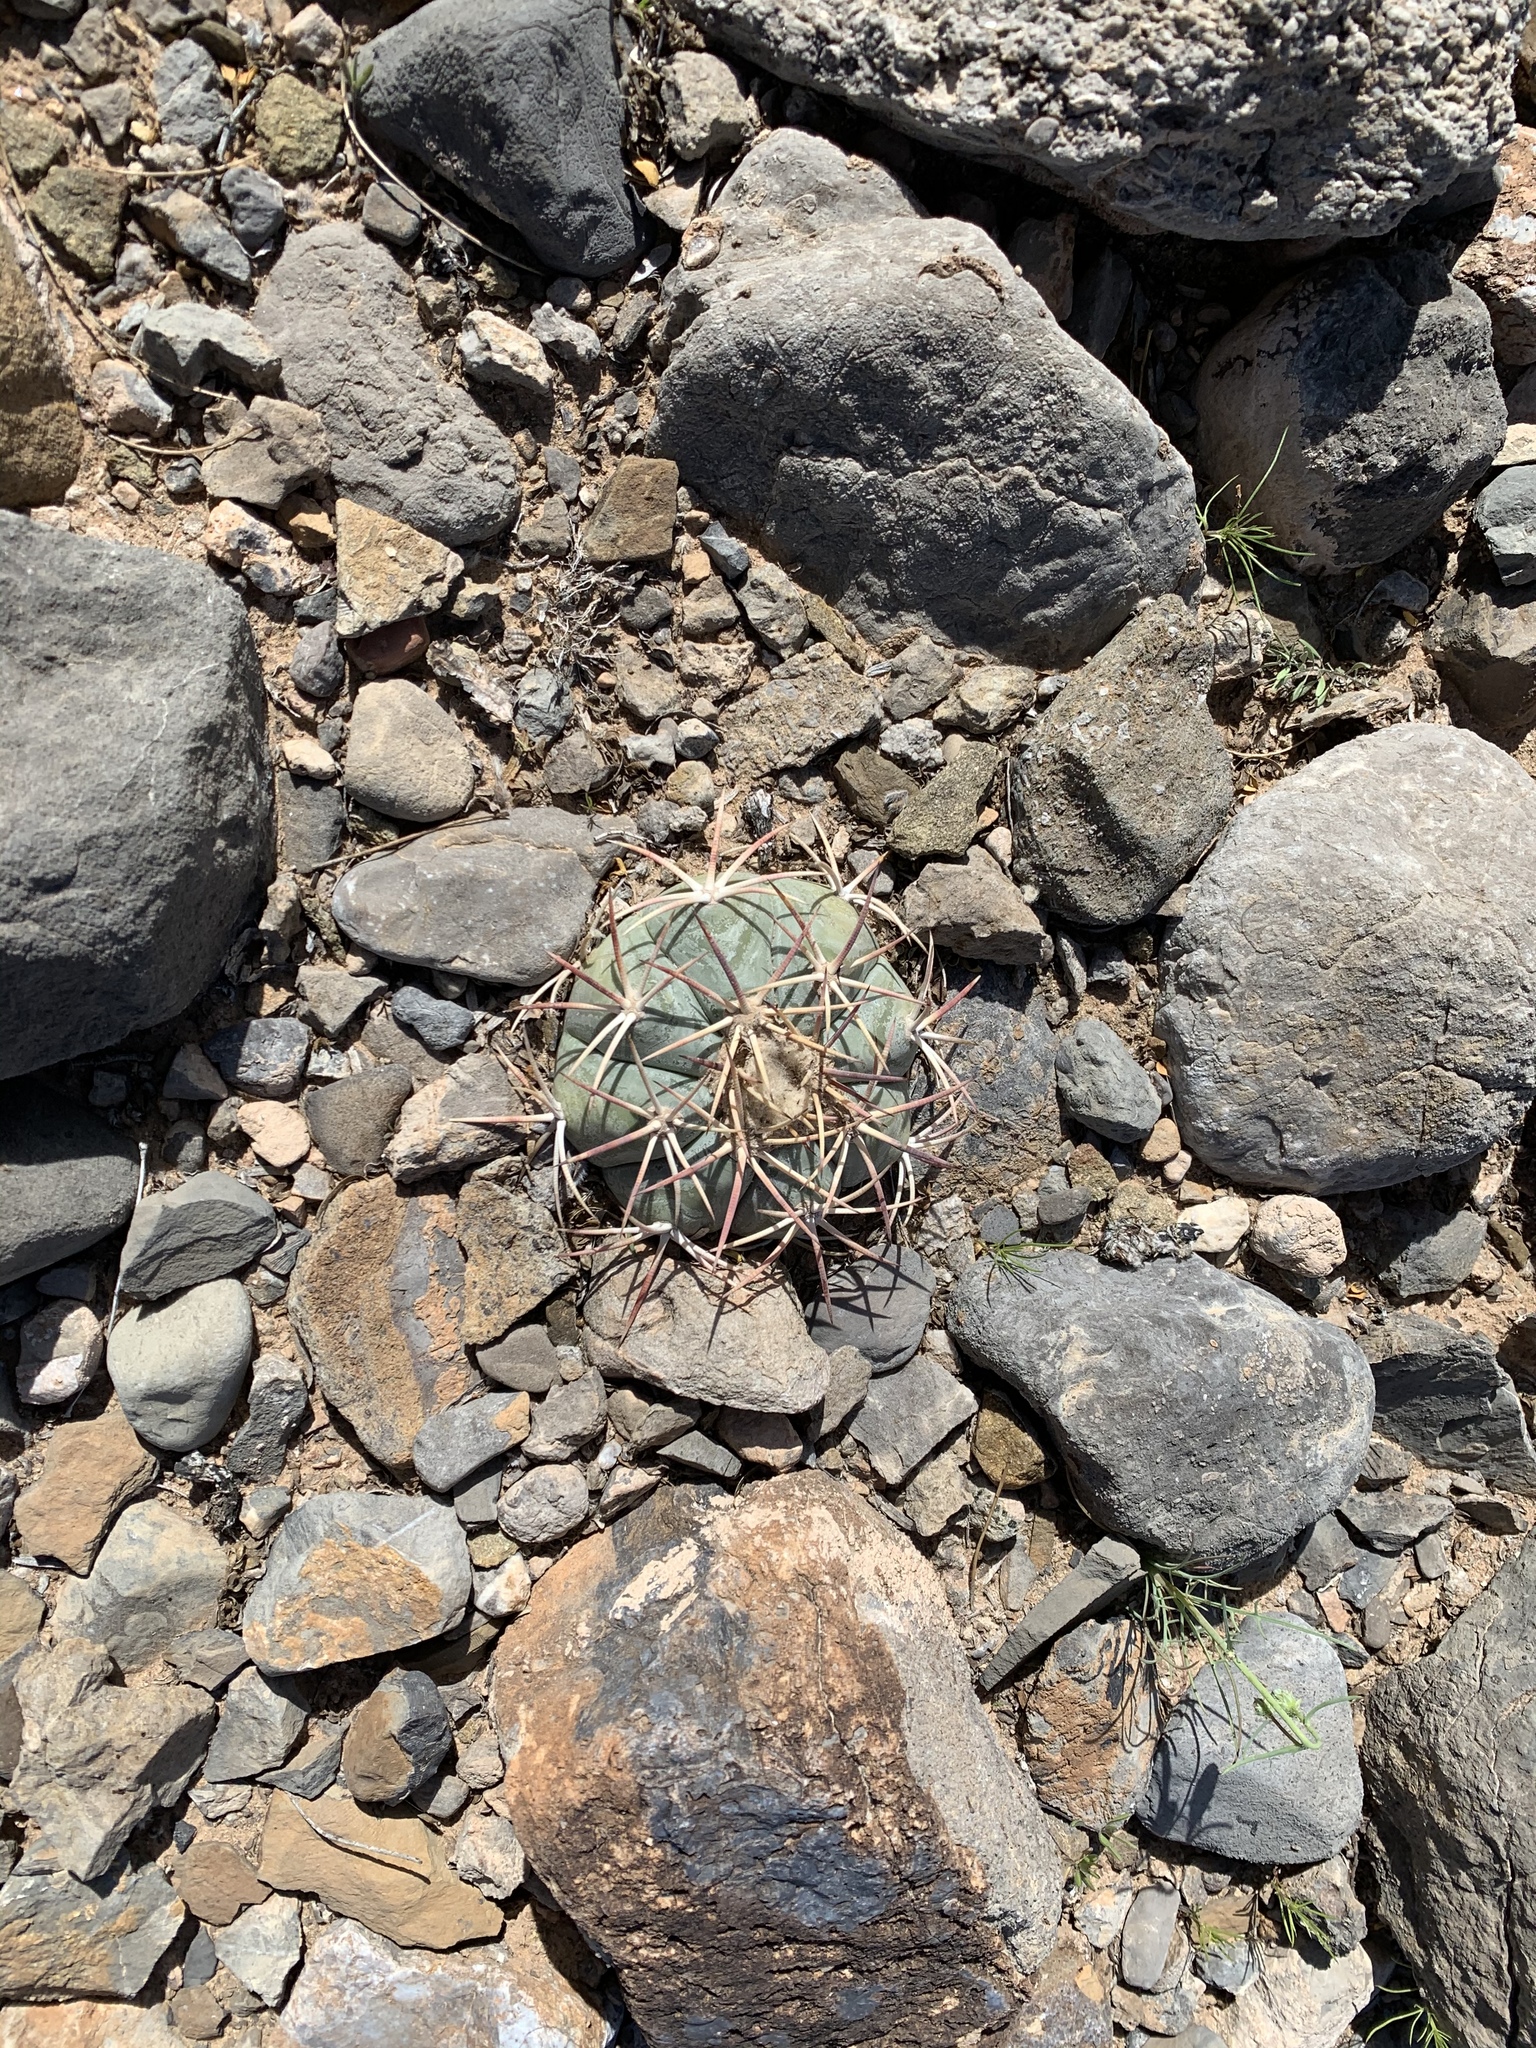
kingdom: Plantae
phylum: Tracheophyta
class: Magnoliopsida
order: Caryophyllales
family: Cactaceae
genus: Echinocactus
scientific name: Echinocactus horizonthalonius
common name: Devilshead
